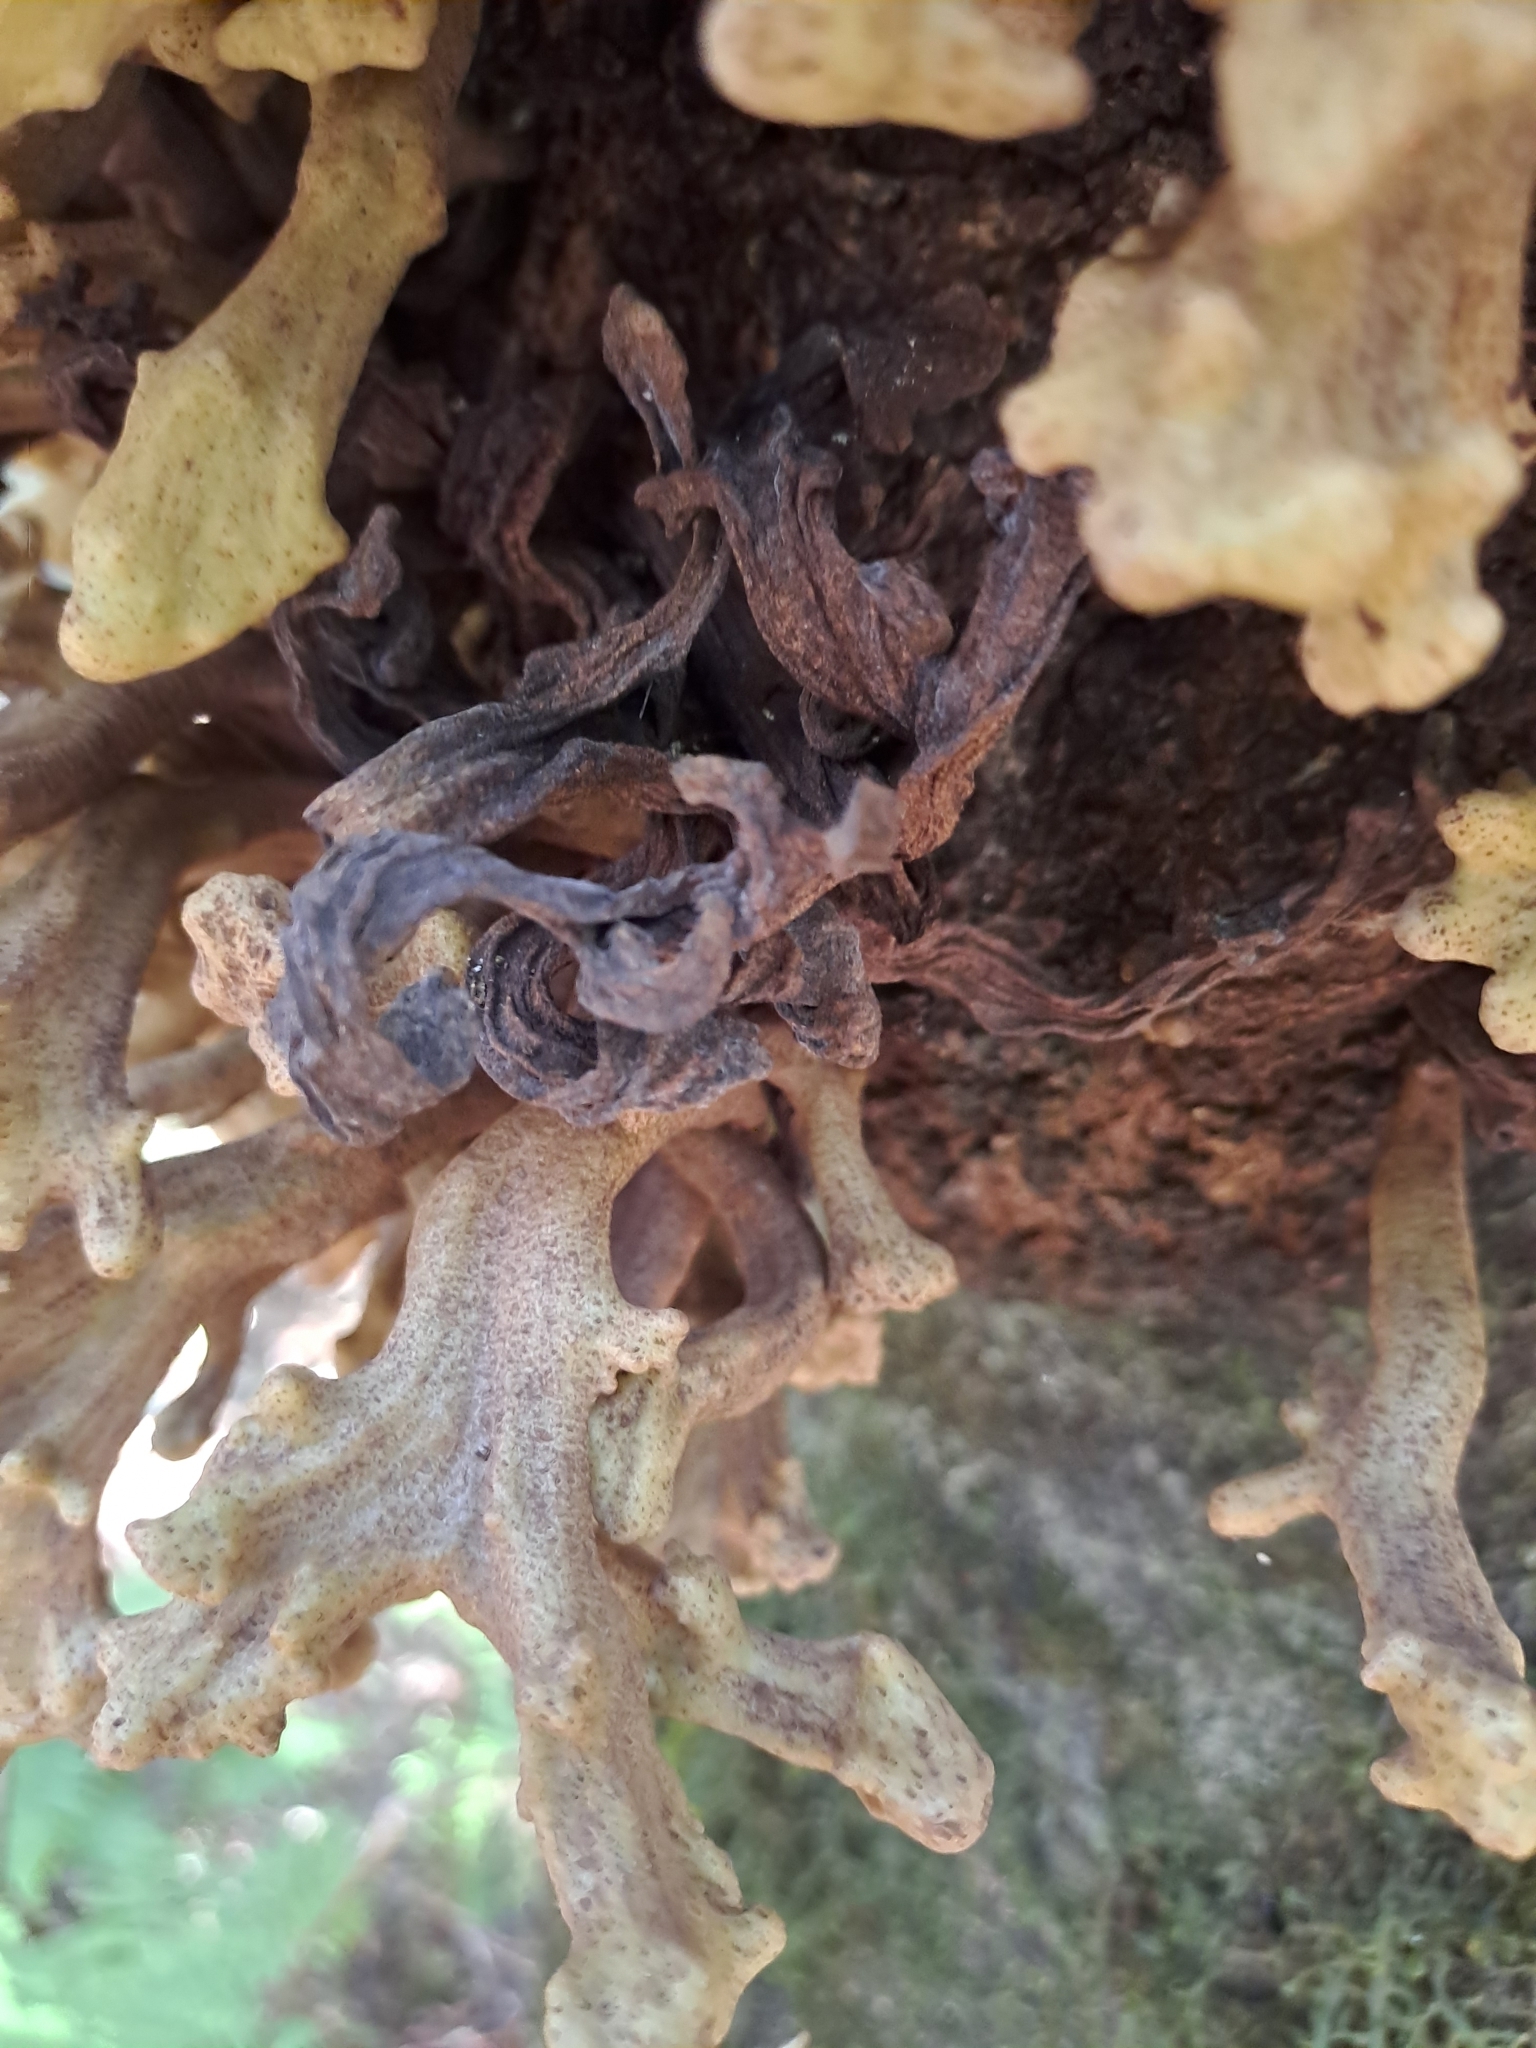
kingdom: Fungi
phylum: Basidiomycota
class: Exobasidiomycetes
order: Exobasidiales
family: Laurobasidiaceae
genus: Laurobasidium
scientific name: Laurobasidium lauri
